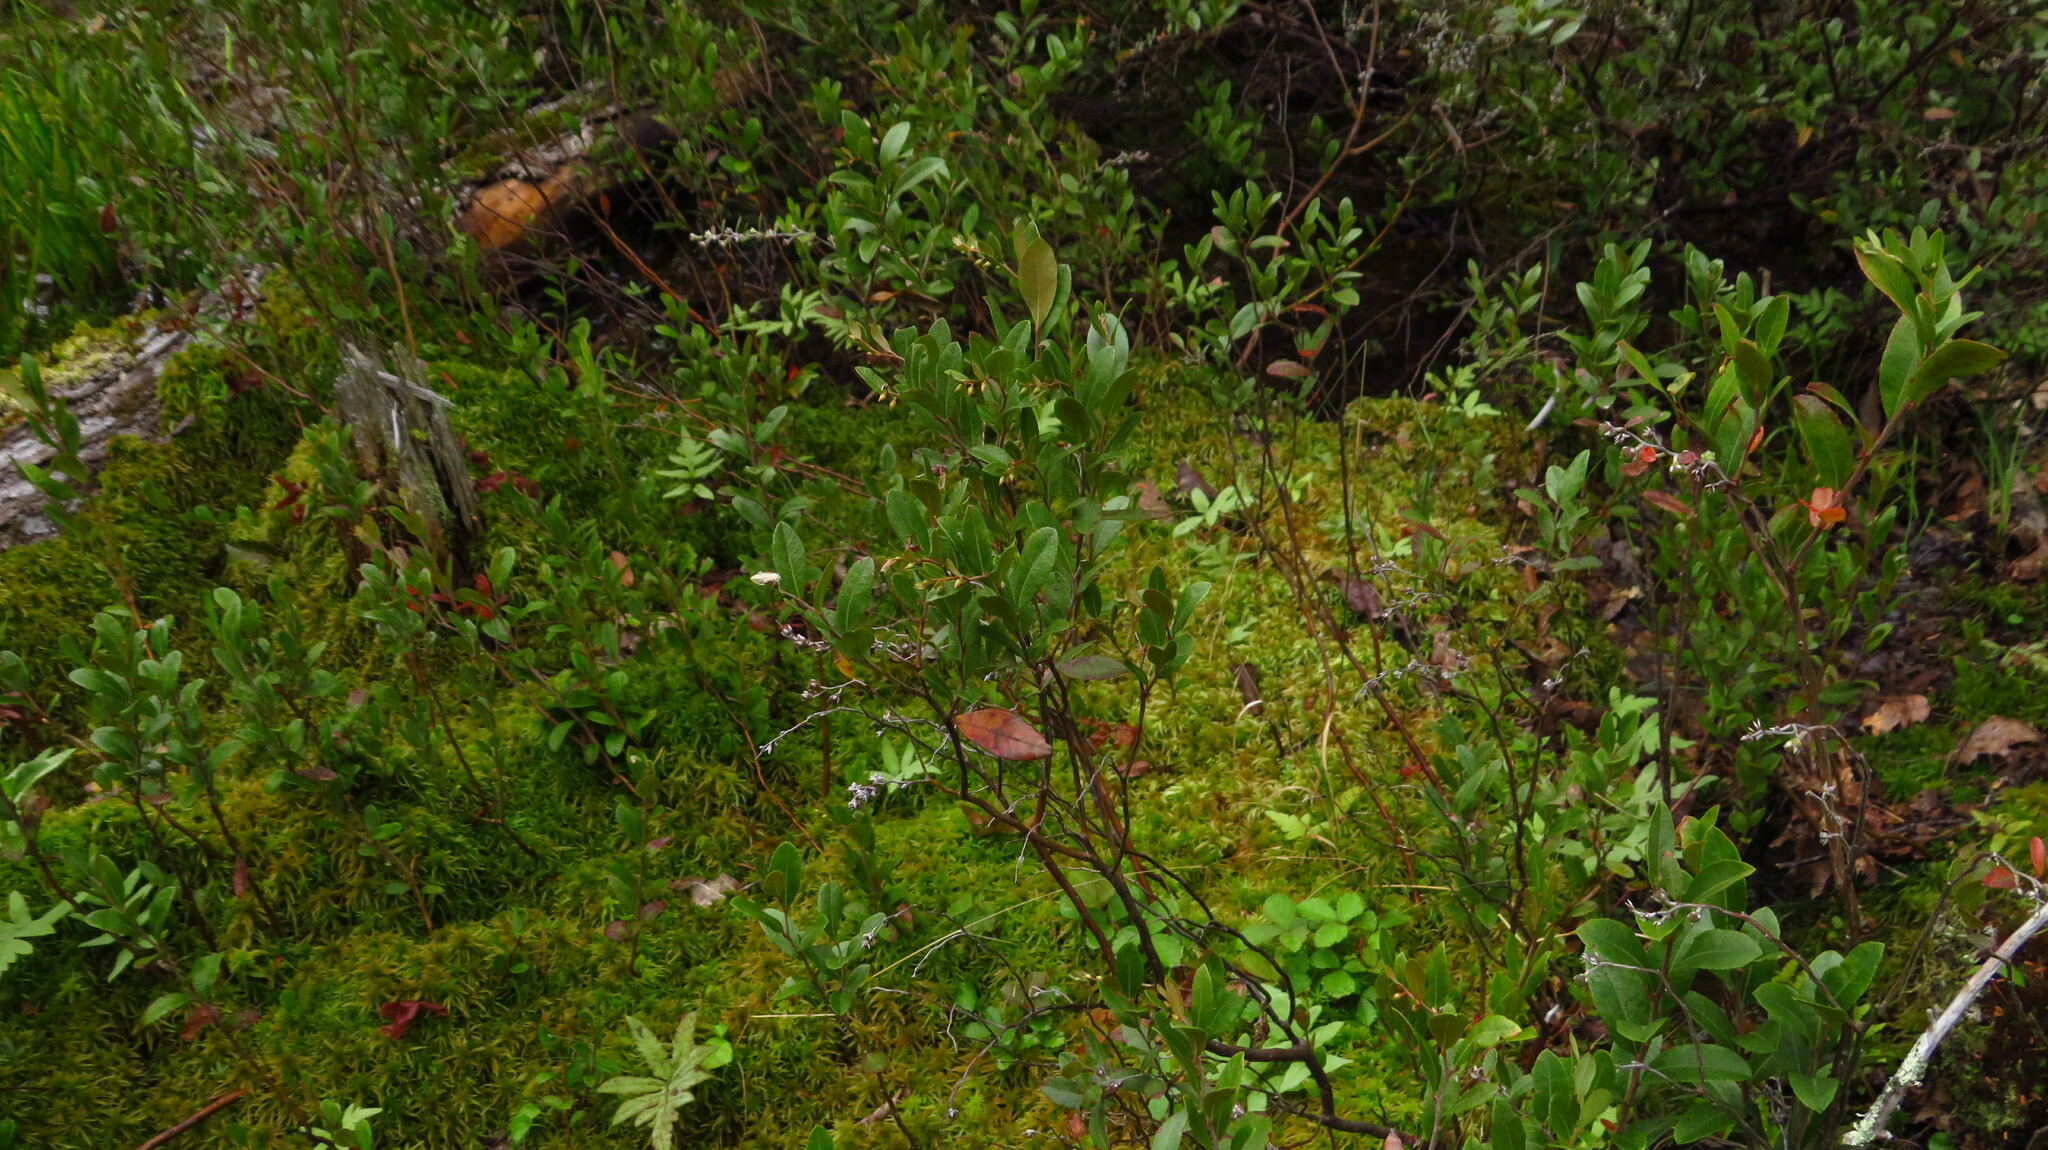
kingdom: Plantae
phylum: Tracheophyta
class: Magnoliopsida
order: Ericales
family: Ericaceae
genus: Chamaedaphne
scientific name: Chamaedaphne calyculata
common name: Leatherleaf
